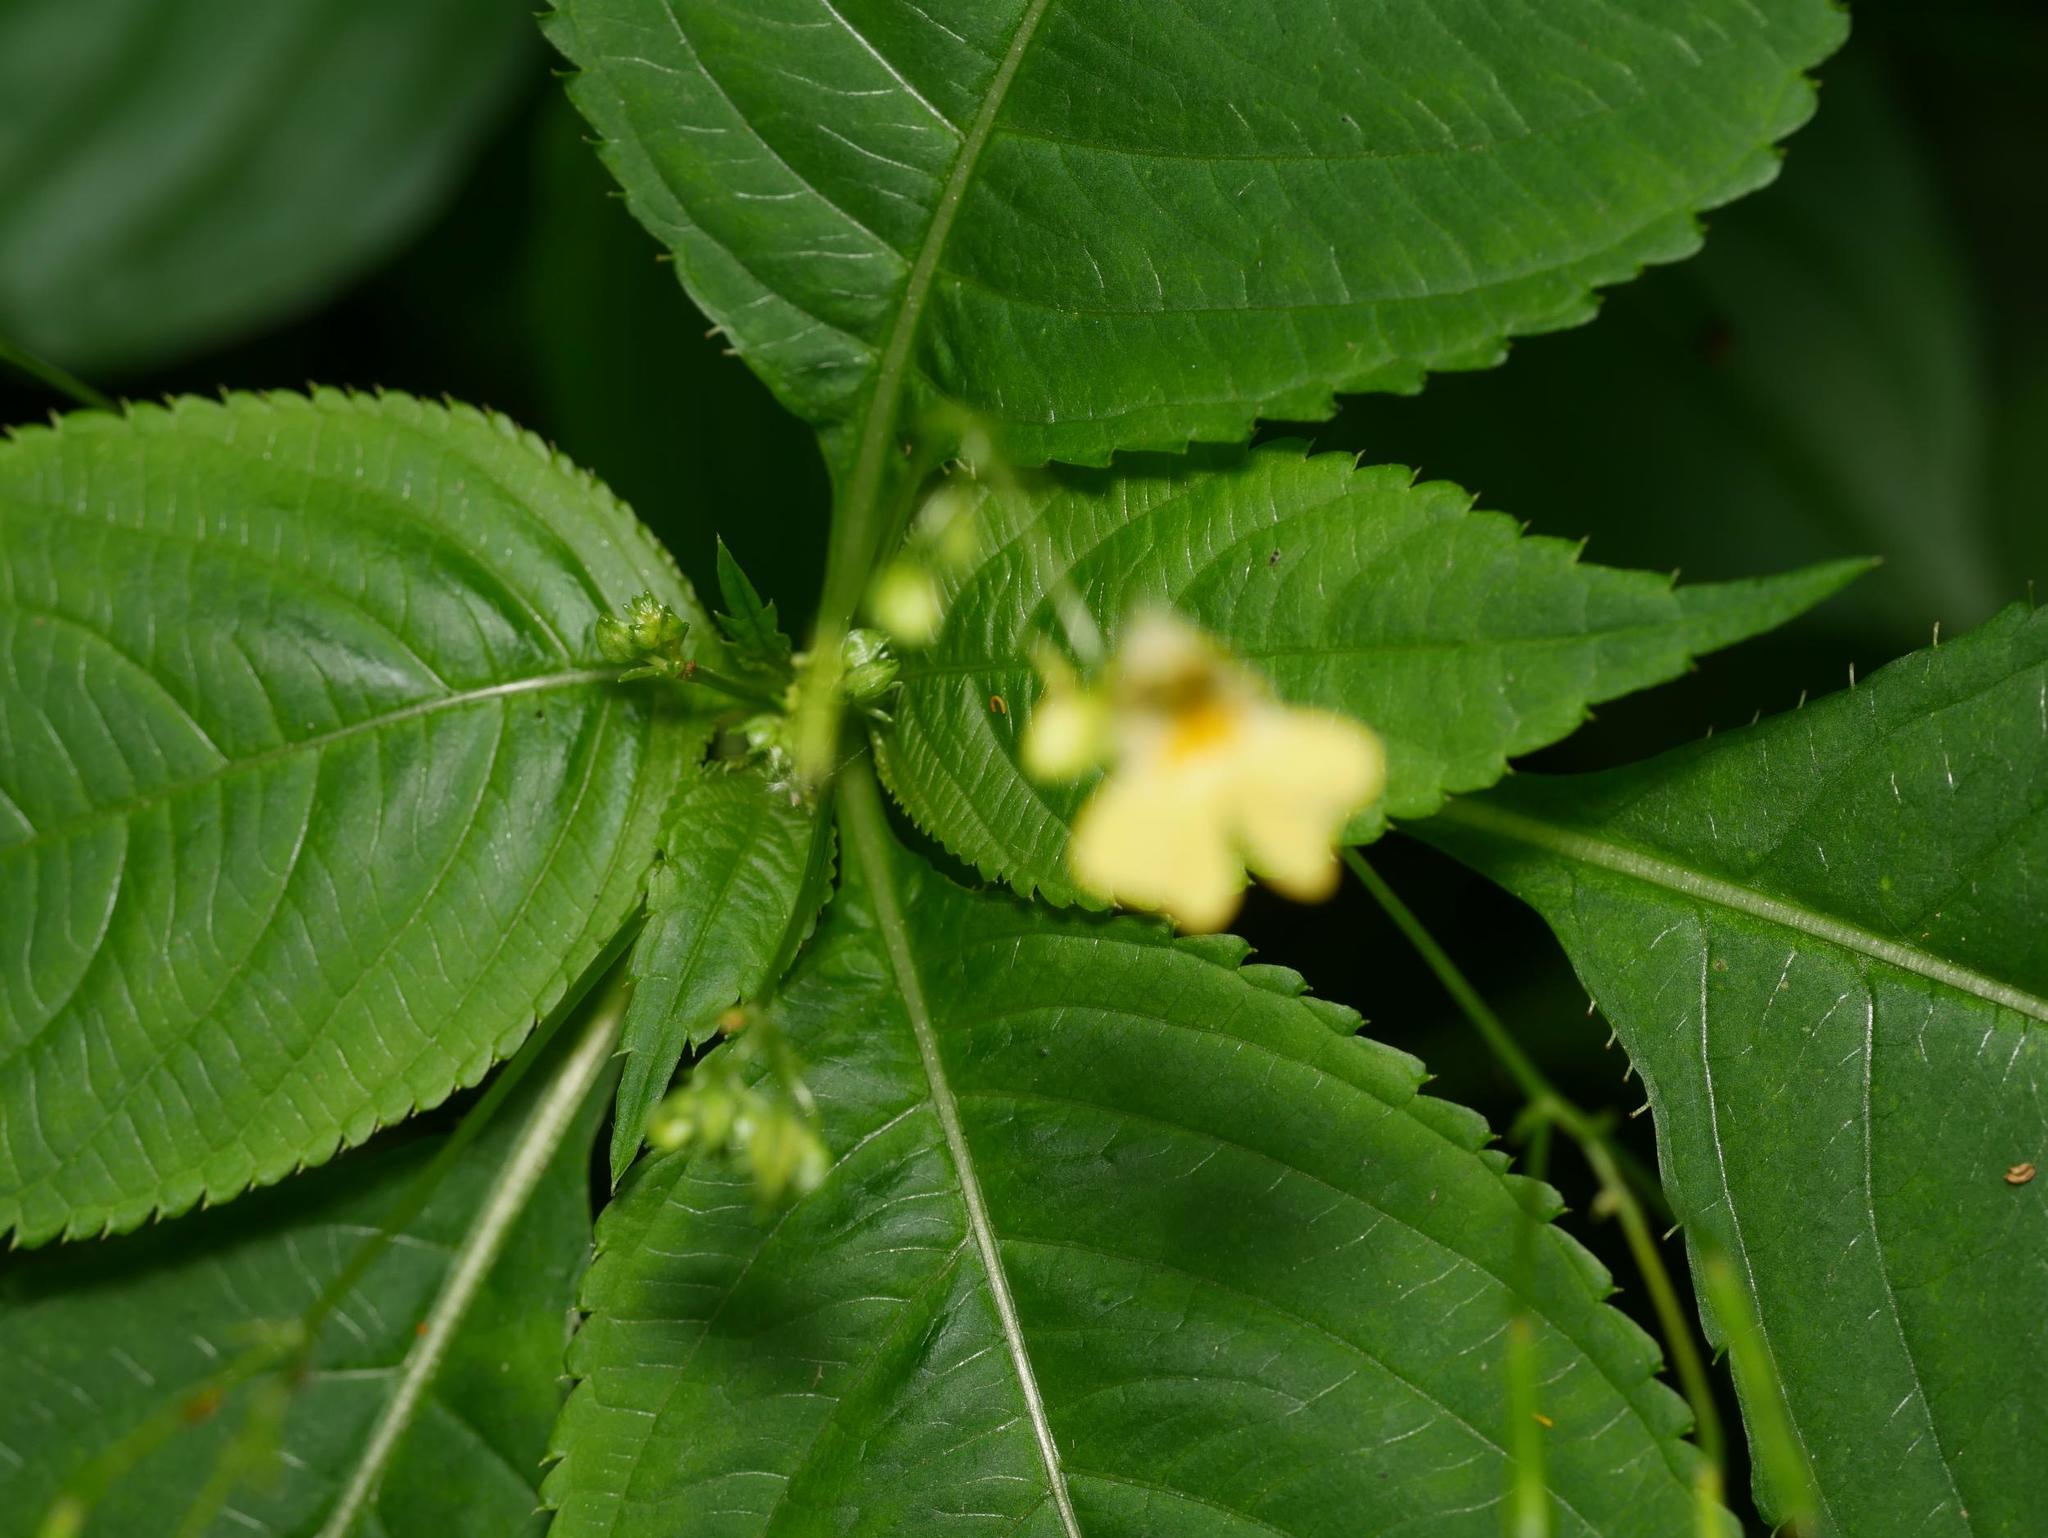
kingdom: Plantae
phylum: Tracheophyta
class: Magnoliopsida
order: Ericales
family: Balsaminaceae
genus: Impatiens
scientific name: Impatiens parviflora
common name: Small balsam
